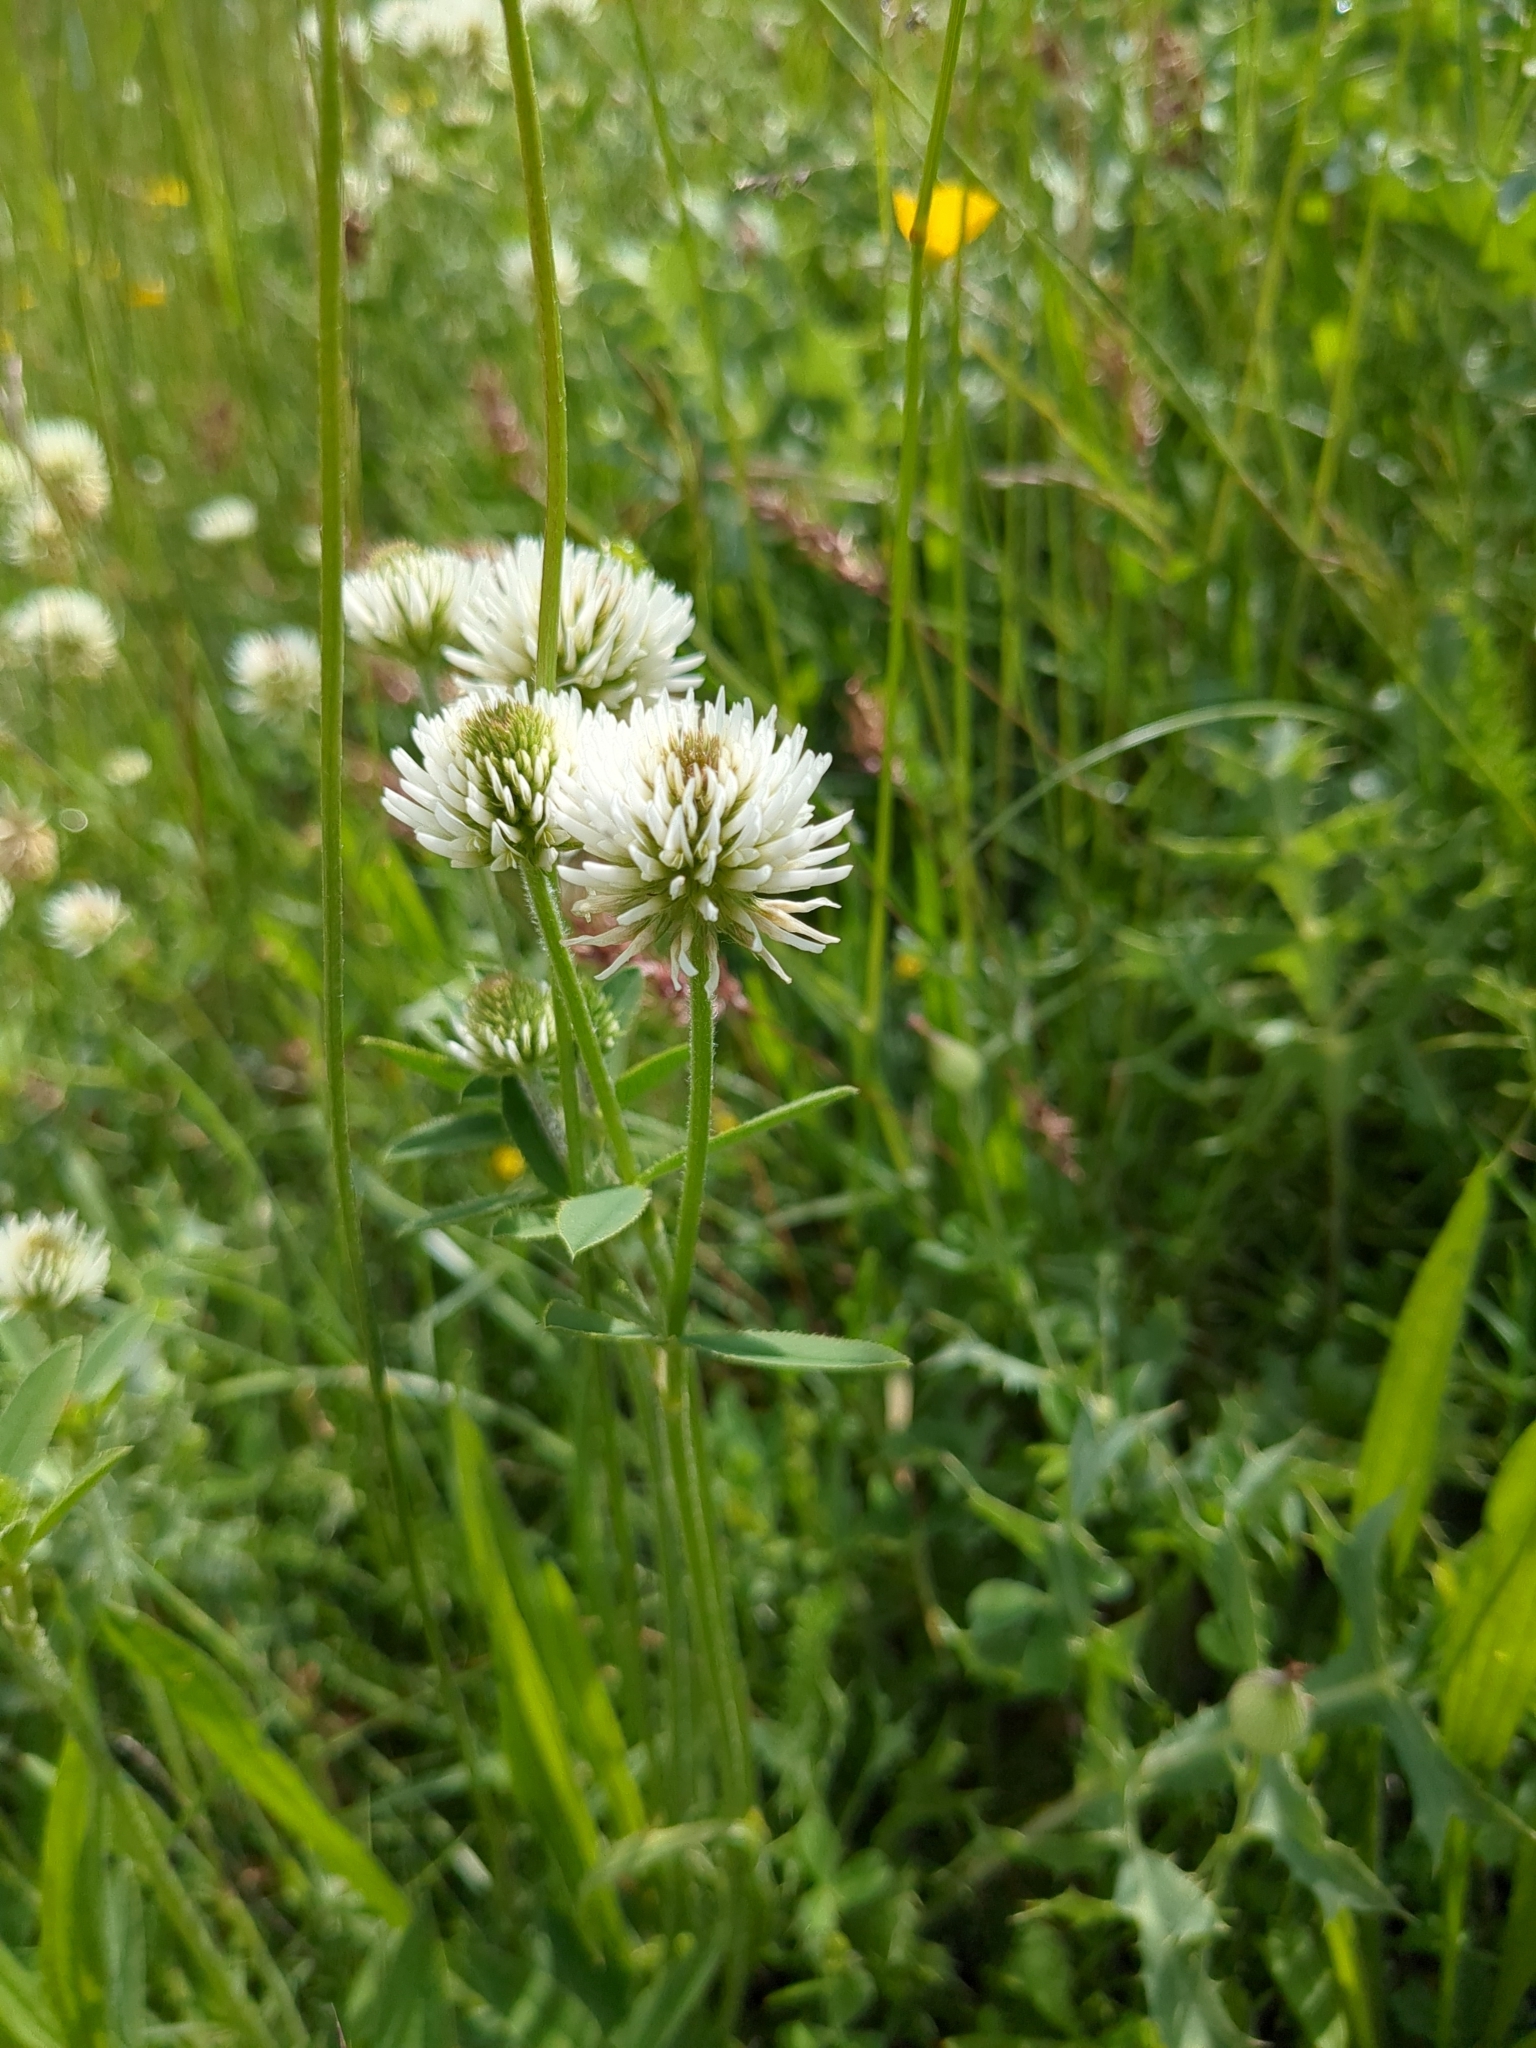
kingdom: Plantae
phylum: Tracheophyta
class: Magnoliopsida
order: Fabales
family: Fabaceae
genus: Trifolium
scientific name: Trifolium montanum
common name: Mountain clover
